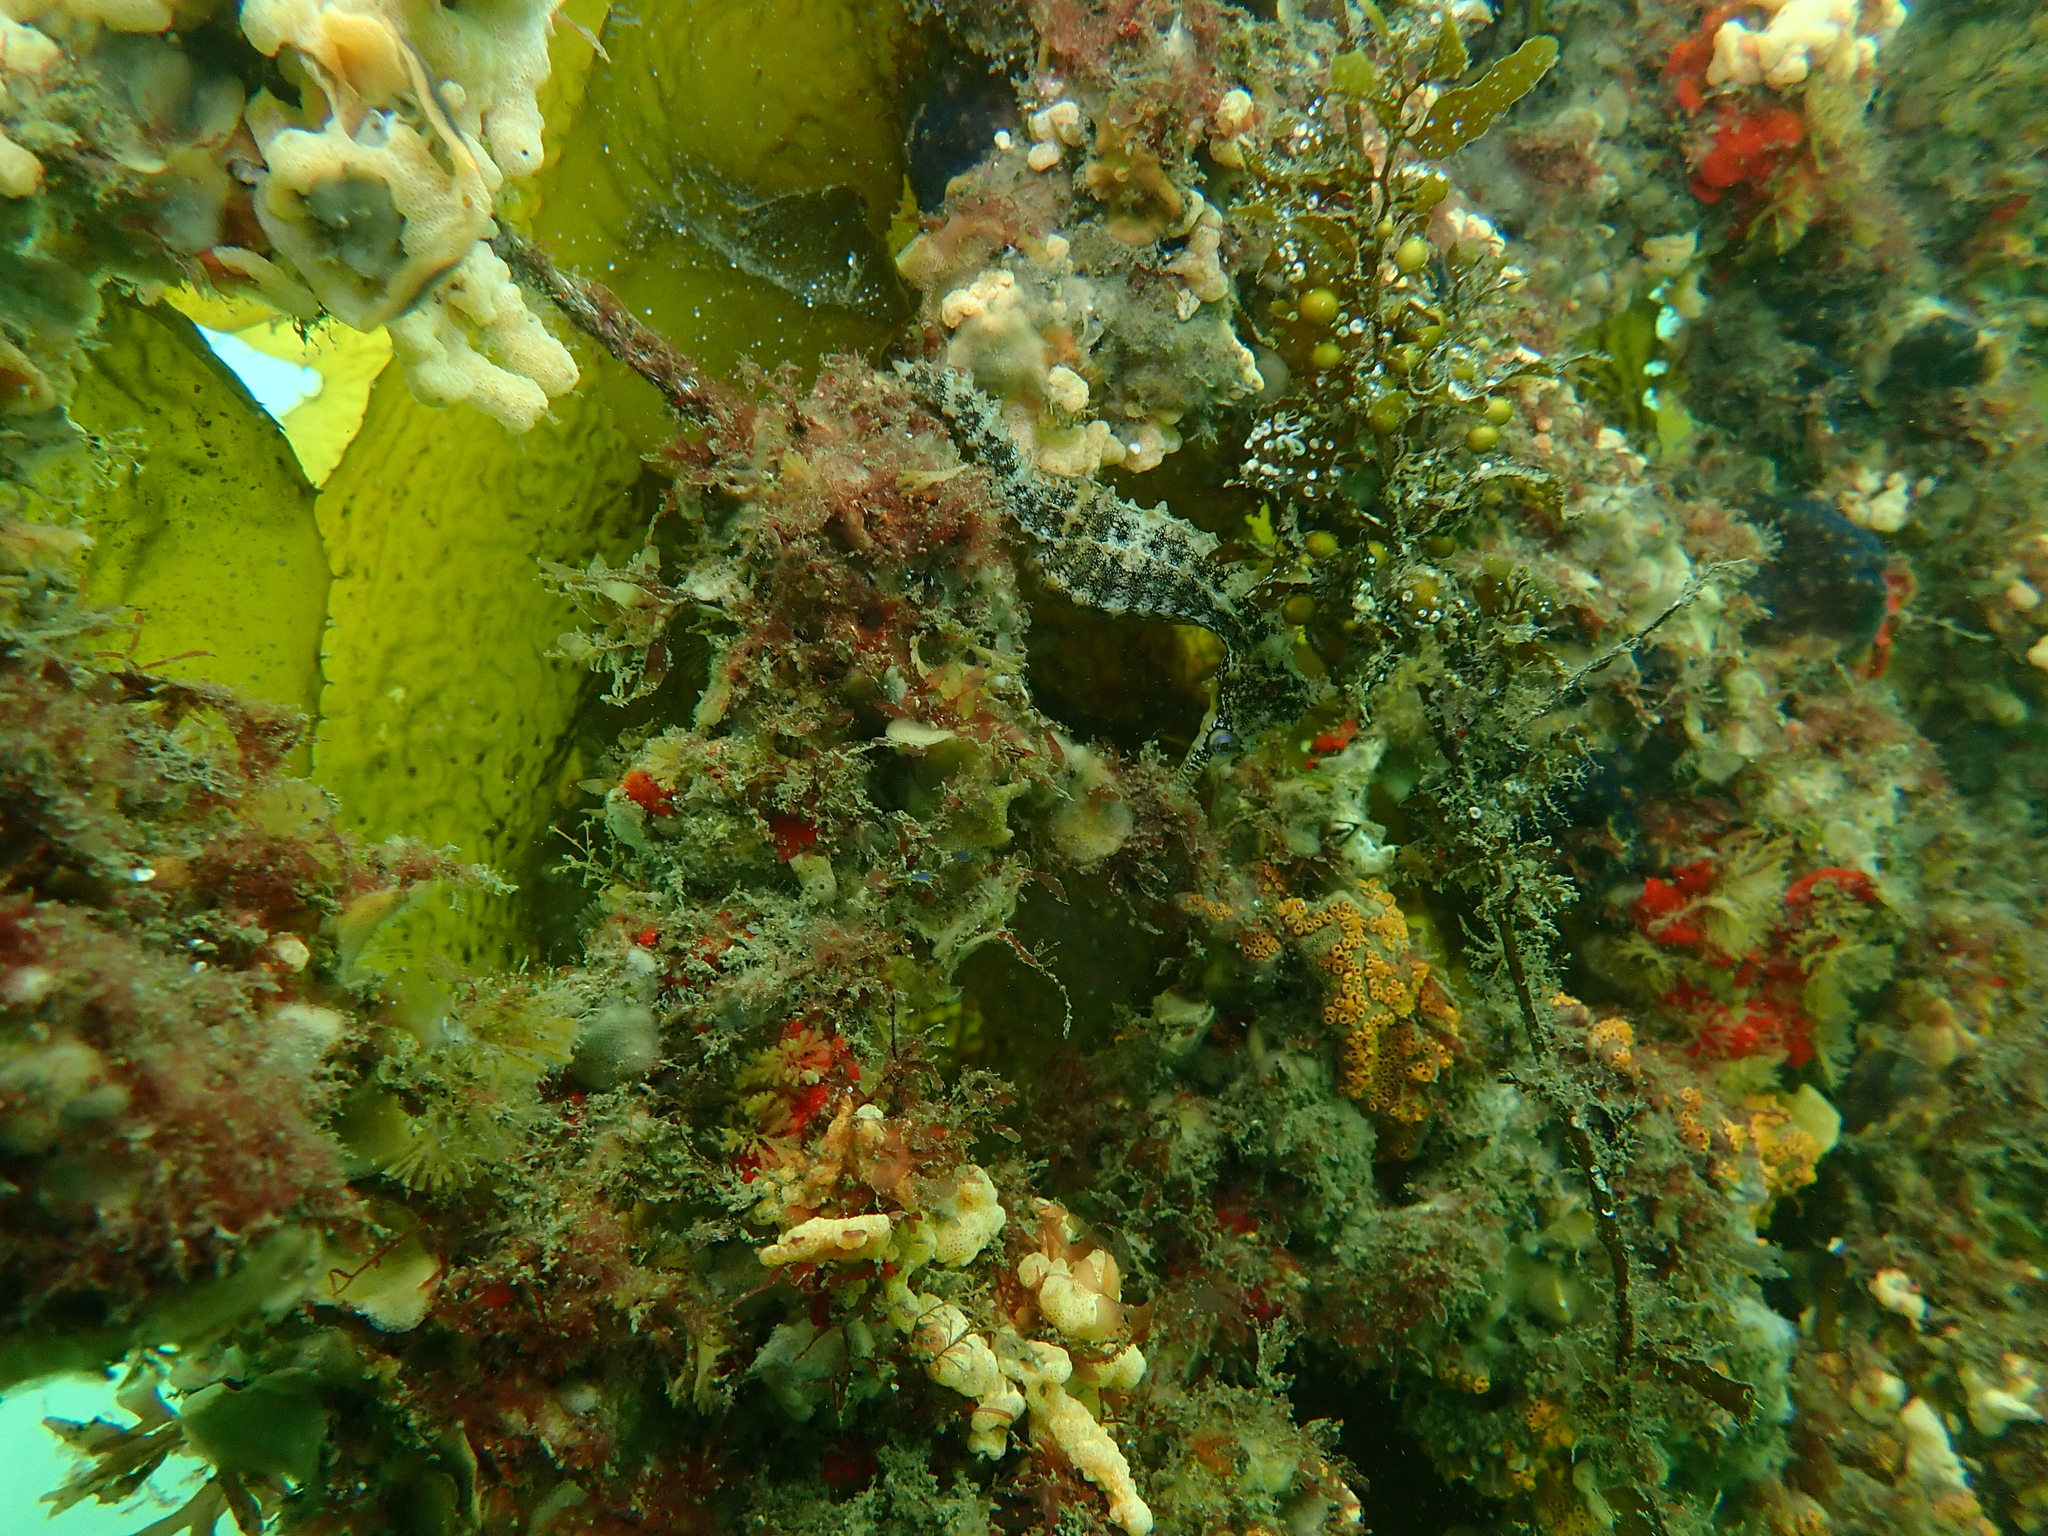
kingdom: Animalia
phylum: Chordata
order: Syngnathiformes
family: Syngnathidae
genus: Hippocampus
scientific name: Hippocampus whitei
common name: New holland seahorse
